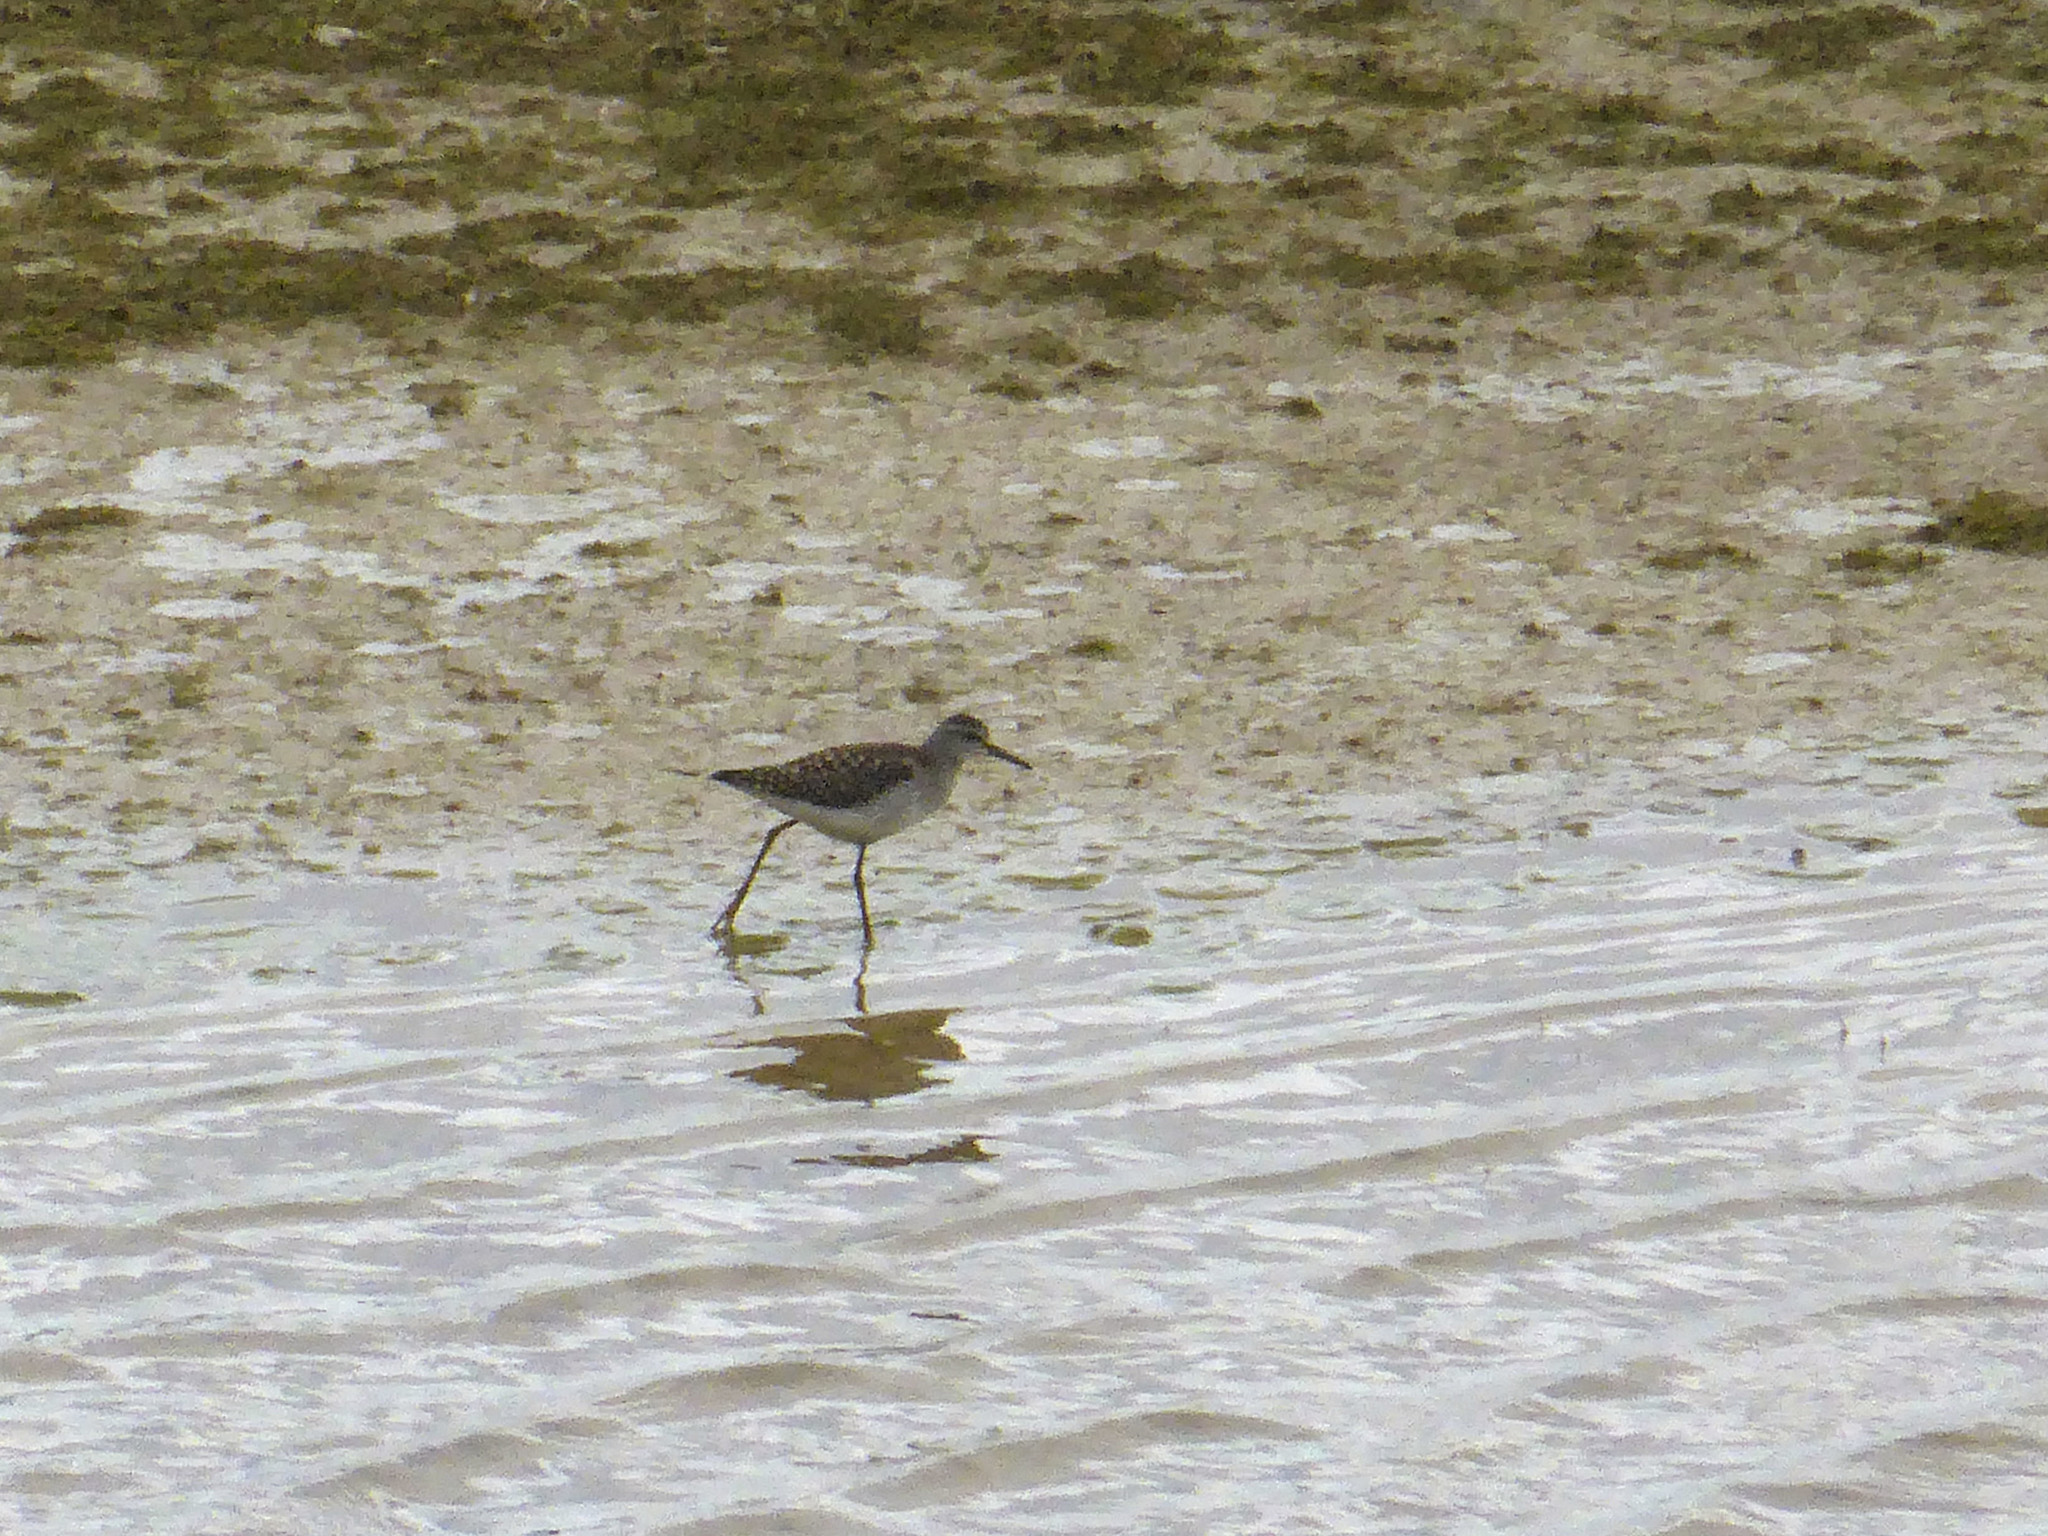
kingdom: Animalia
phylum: Chordata
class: Aves
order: Charadriiformes
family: Scolopacidae
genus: Tringa
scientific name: Tringa glareola
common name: Wood sandpiper
